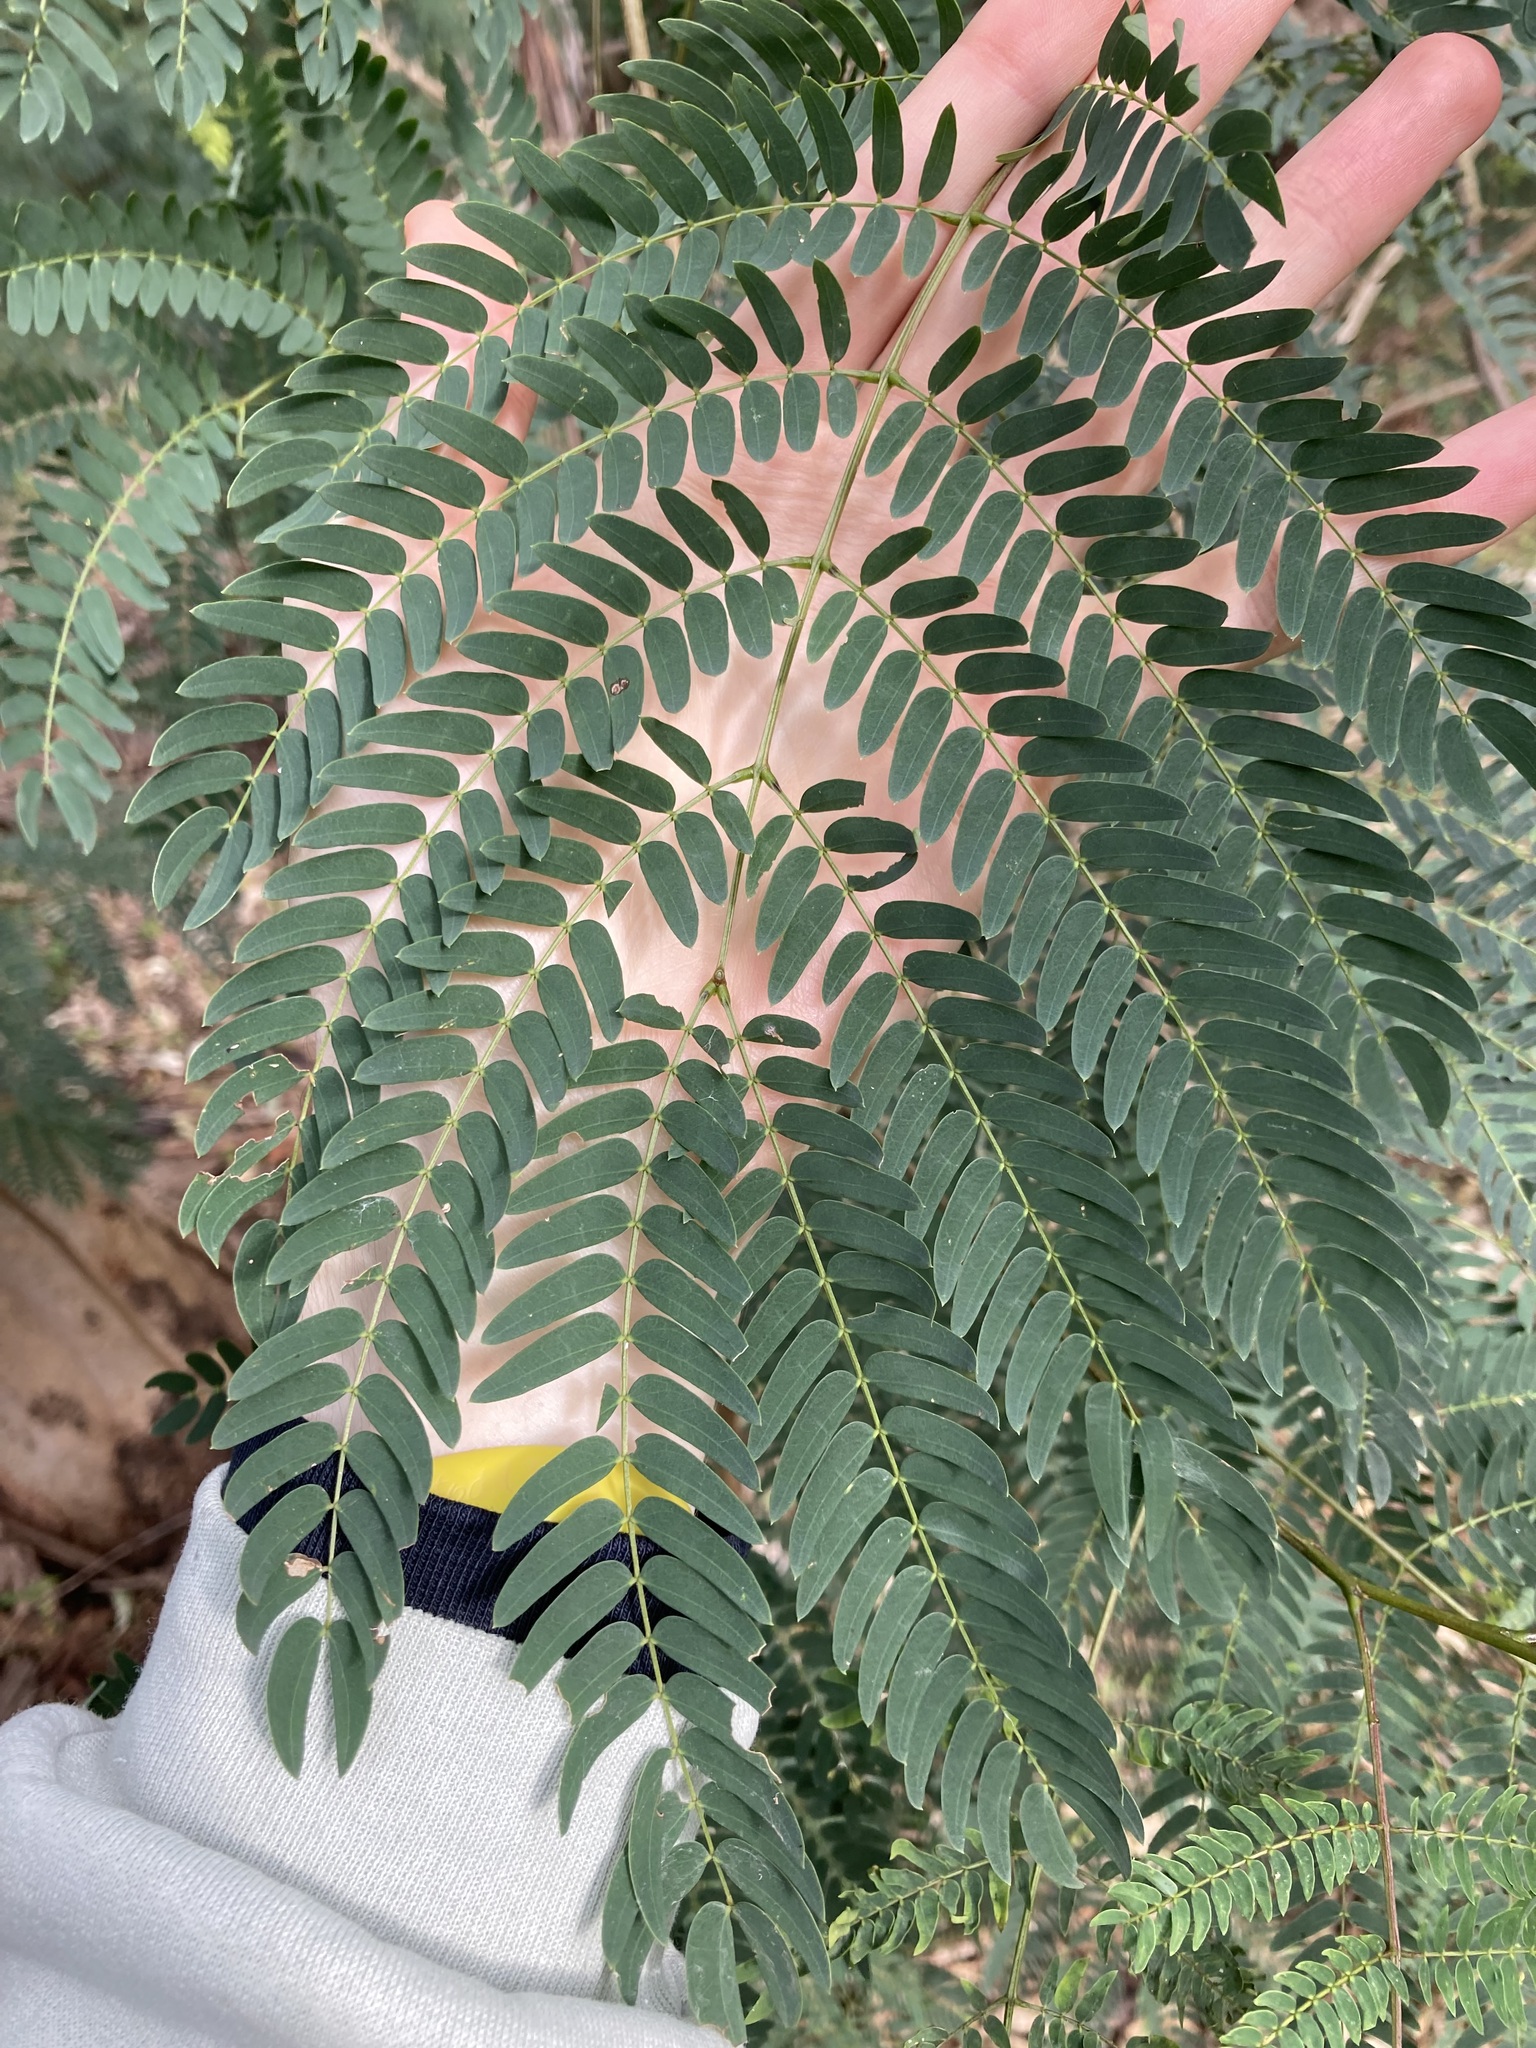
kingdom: Plantae
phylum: Tracheophyta
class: Magnoliopsida
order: Fabales
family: Fabaceae
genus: Leucaena
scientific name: Leucaena leucocephala
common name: White leadtree
